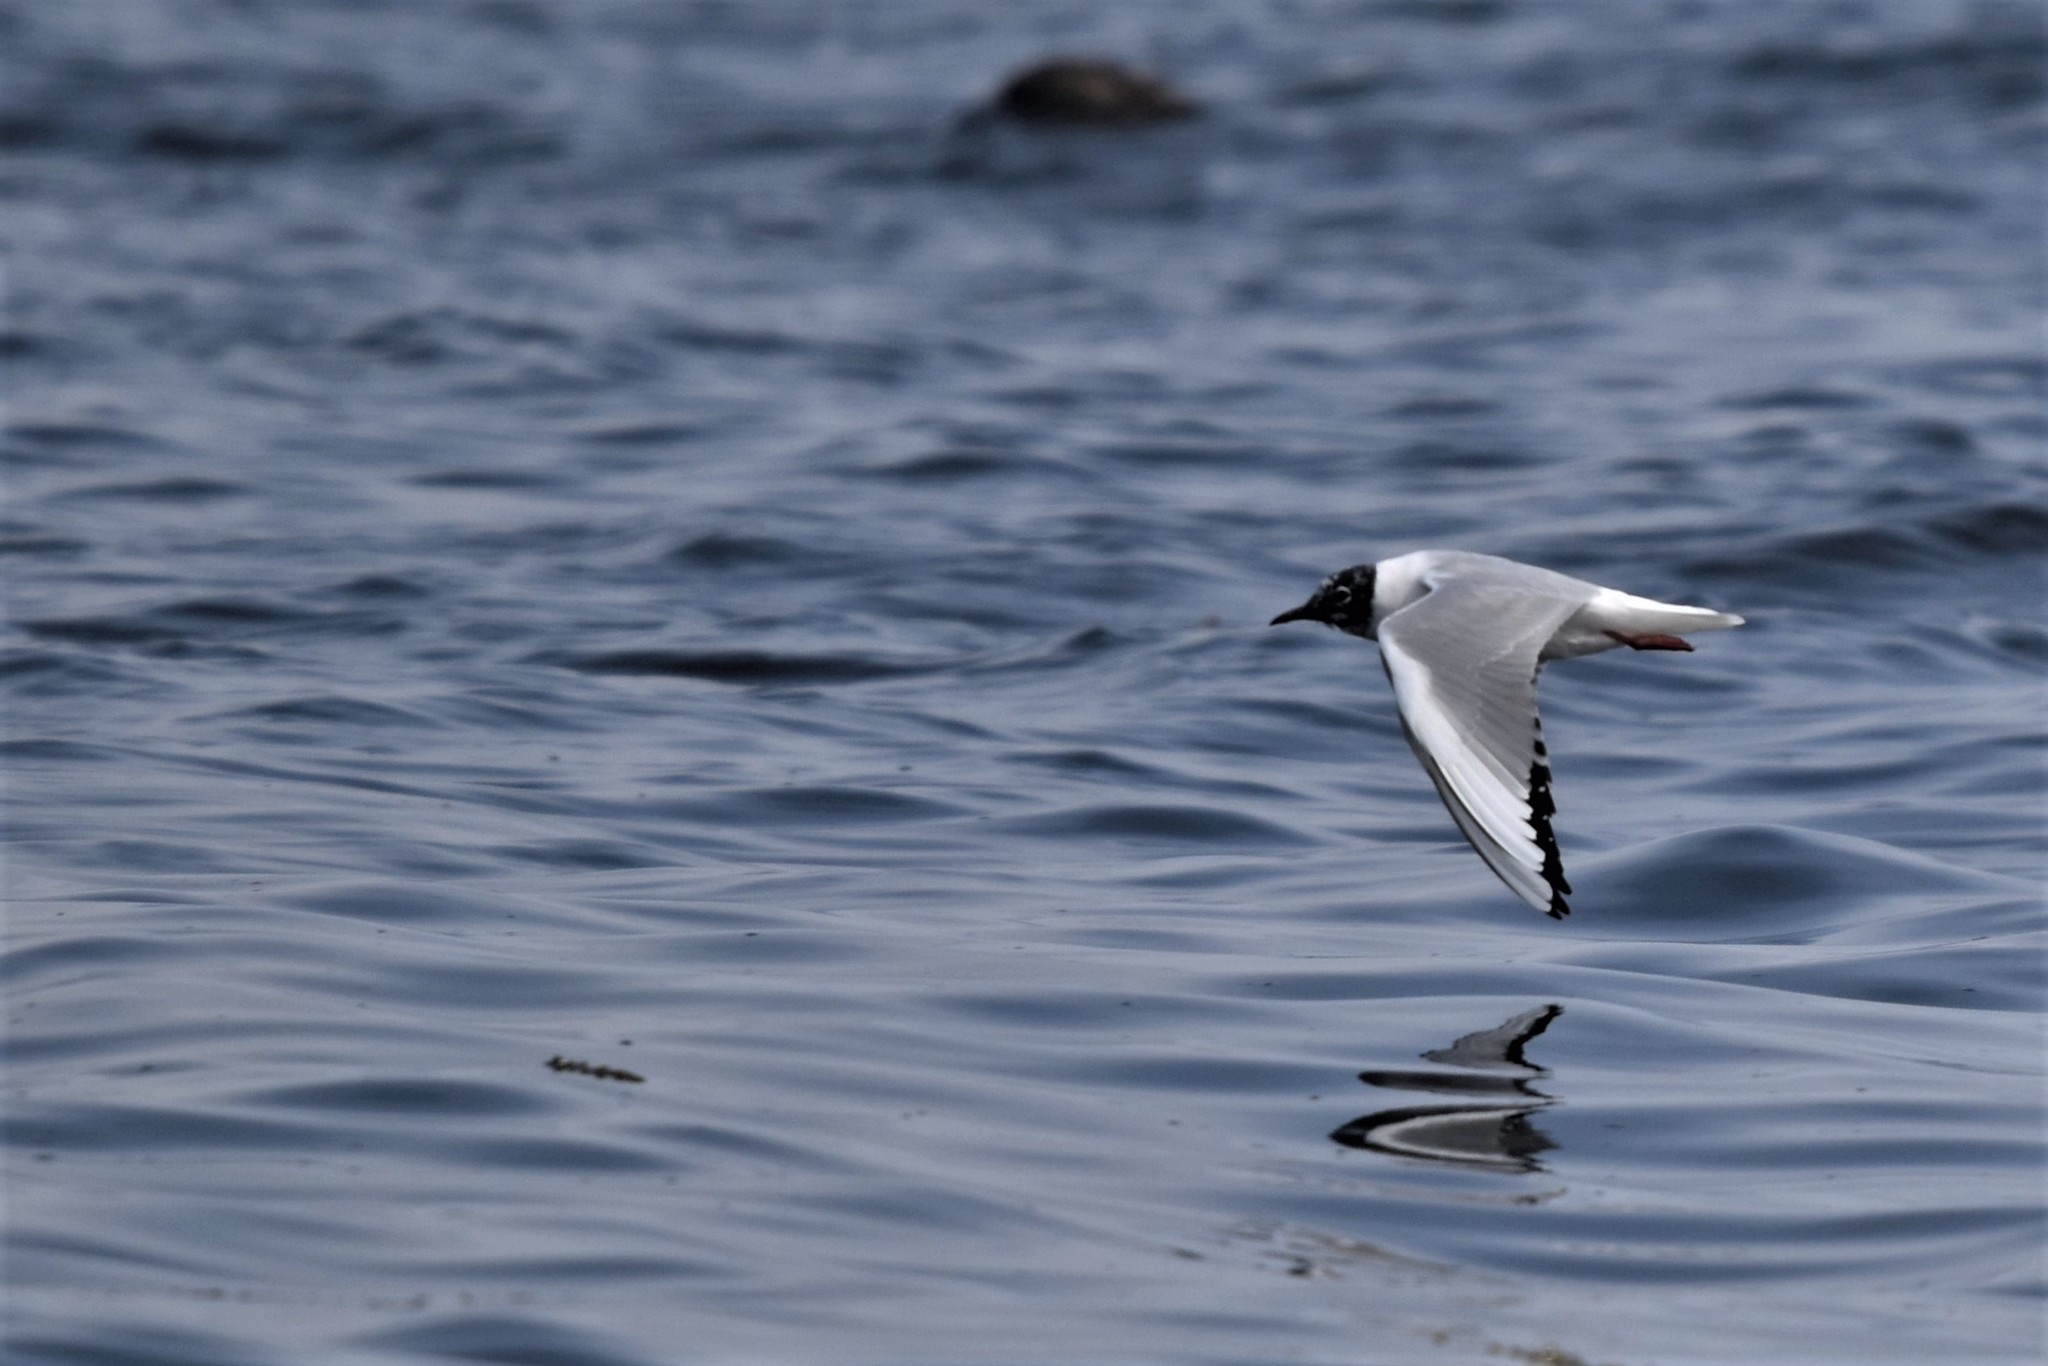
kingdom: Animalia
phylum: Chordata
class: Aves
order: Charadriiformes
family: Laridae
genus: Chroicocephalus
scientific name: Chroicocephalus philadelphia
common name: Bonaparte's gull
